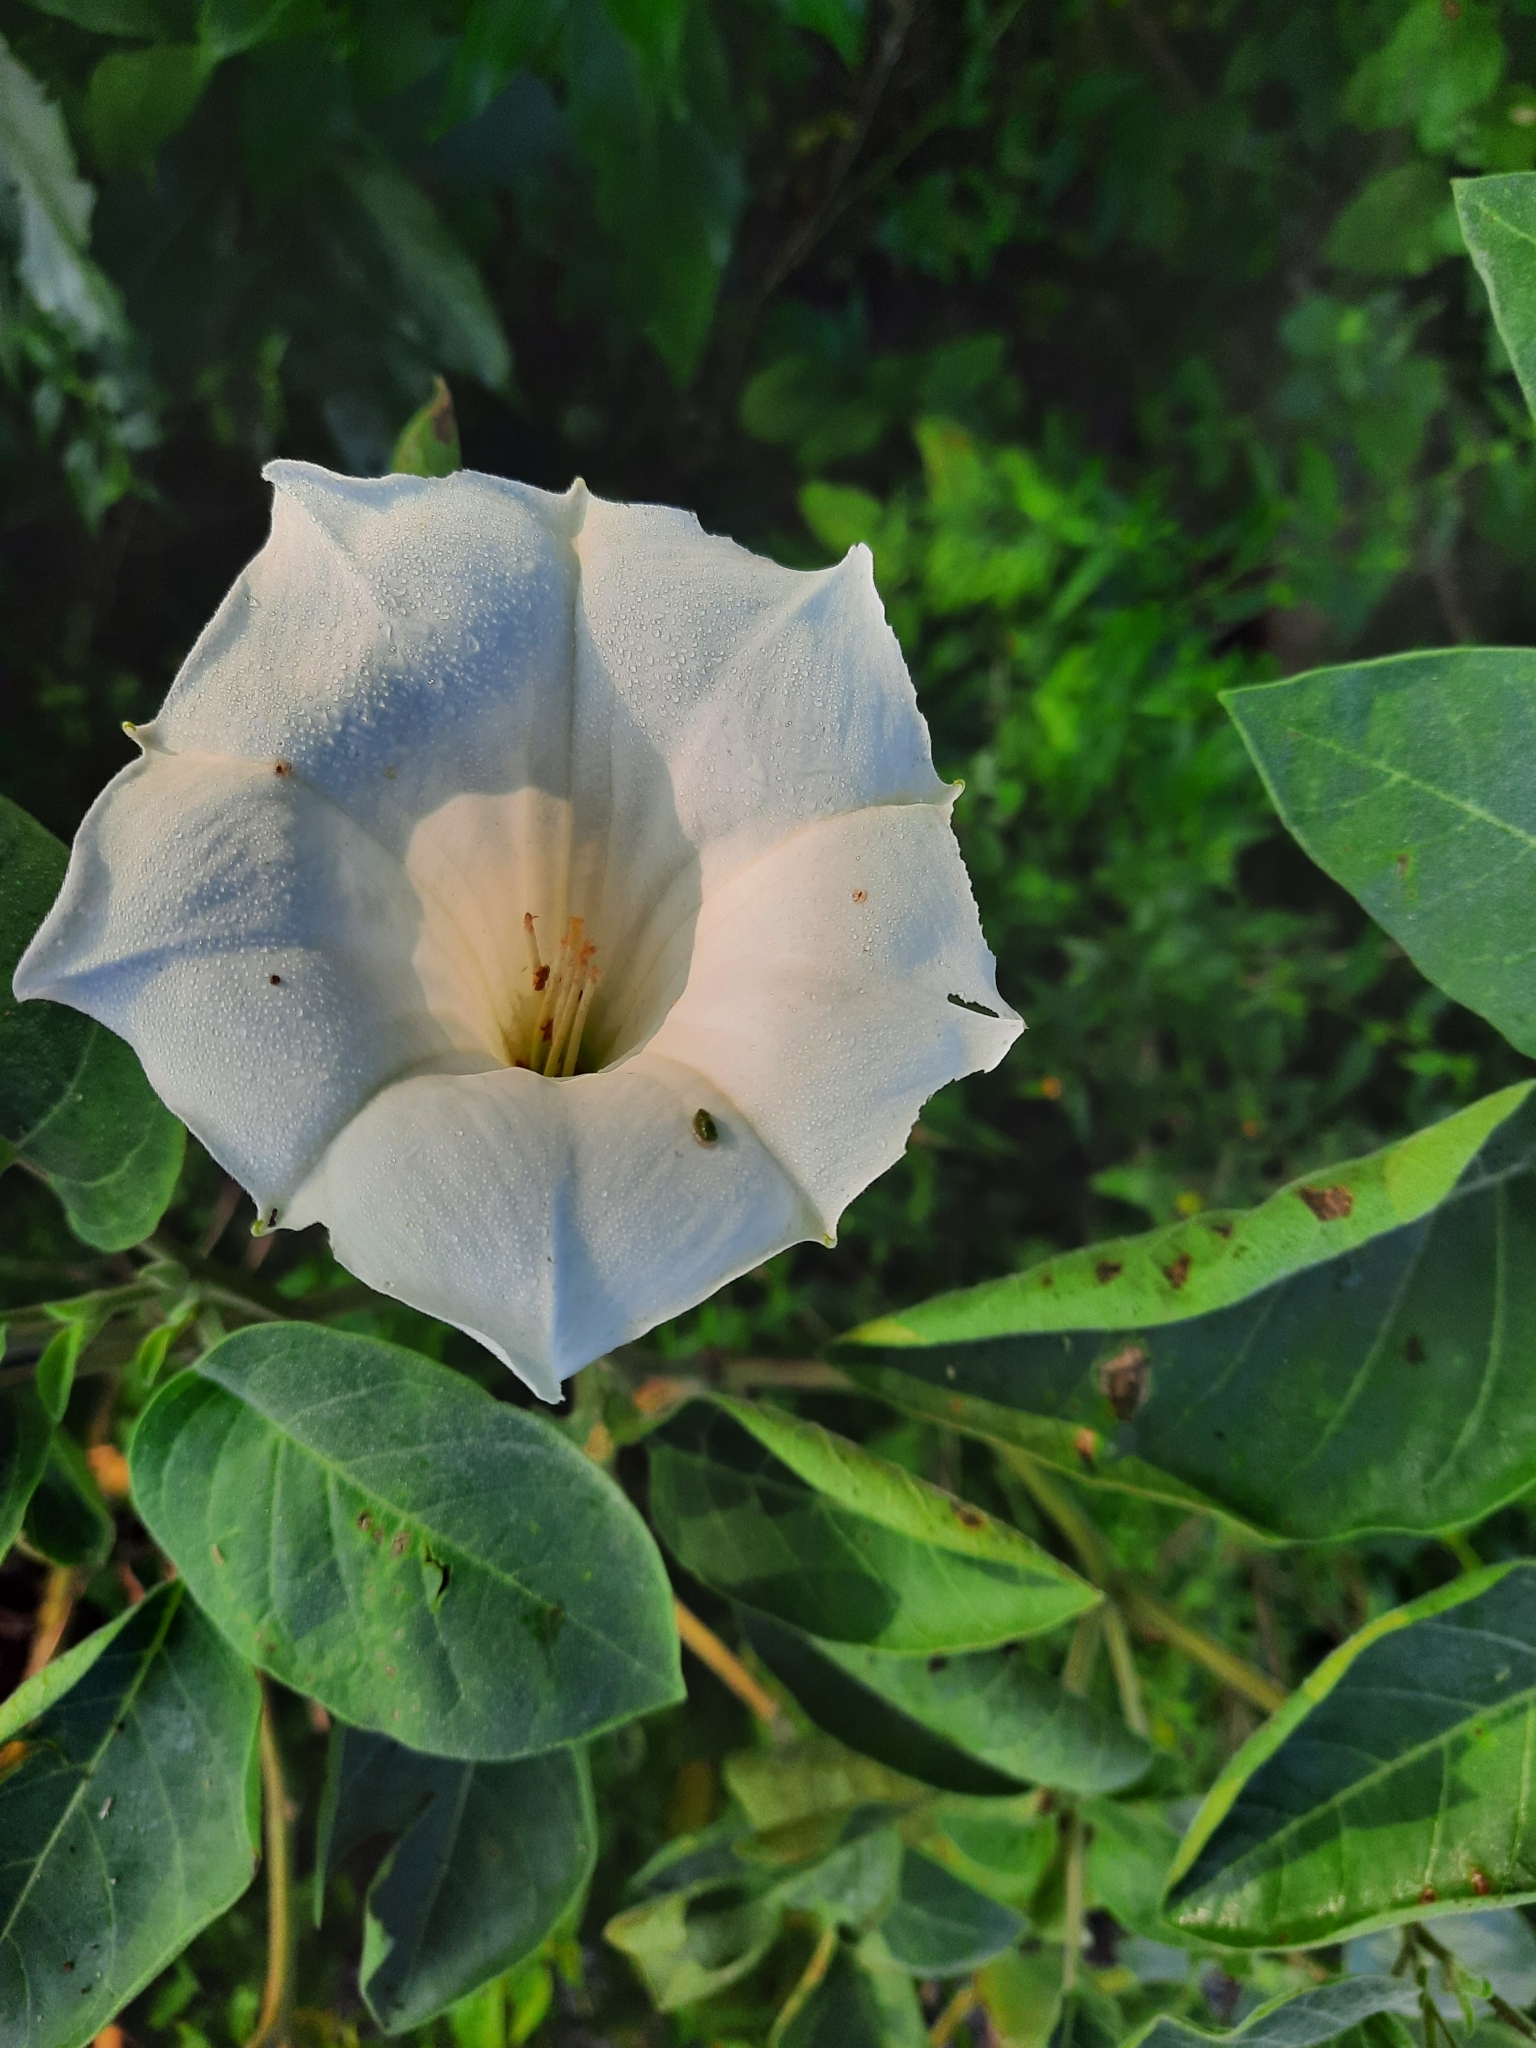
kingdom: Plantae
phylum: Tracheophyta
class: Magnoliopsida
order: Solanales
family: Solanaceae
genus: Datura
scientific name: Datura innoxia
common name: Downy thorn-apple
